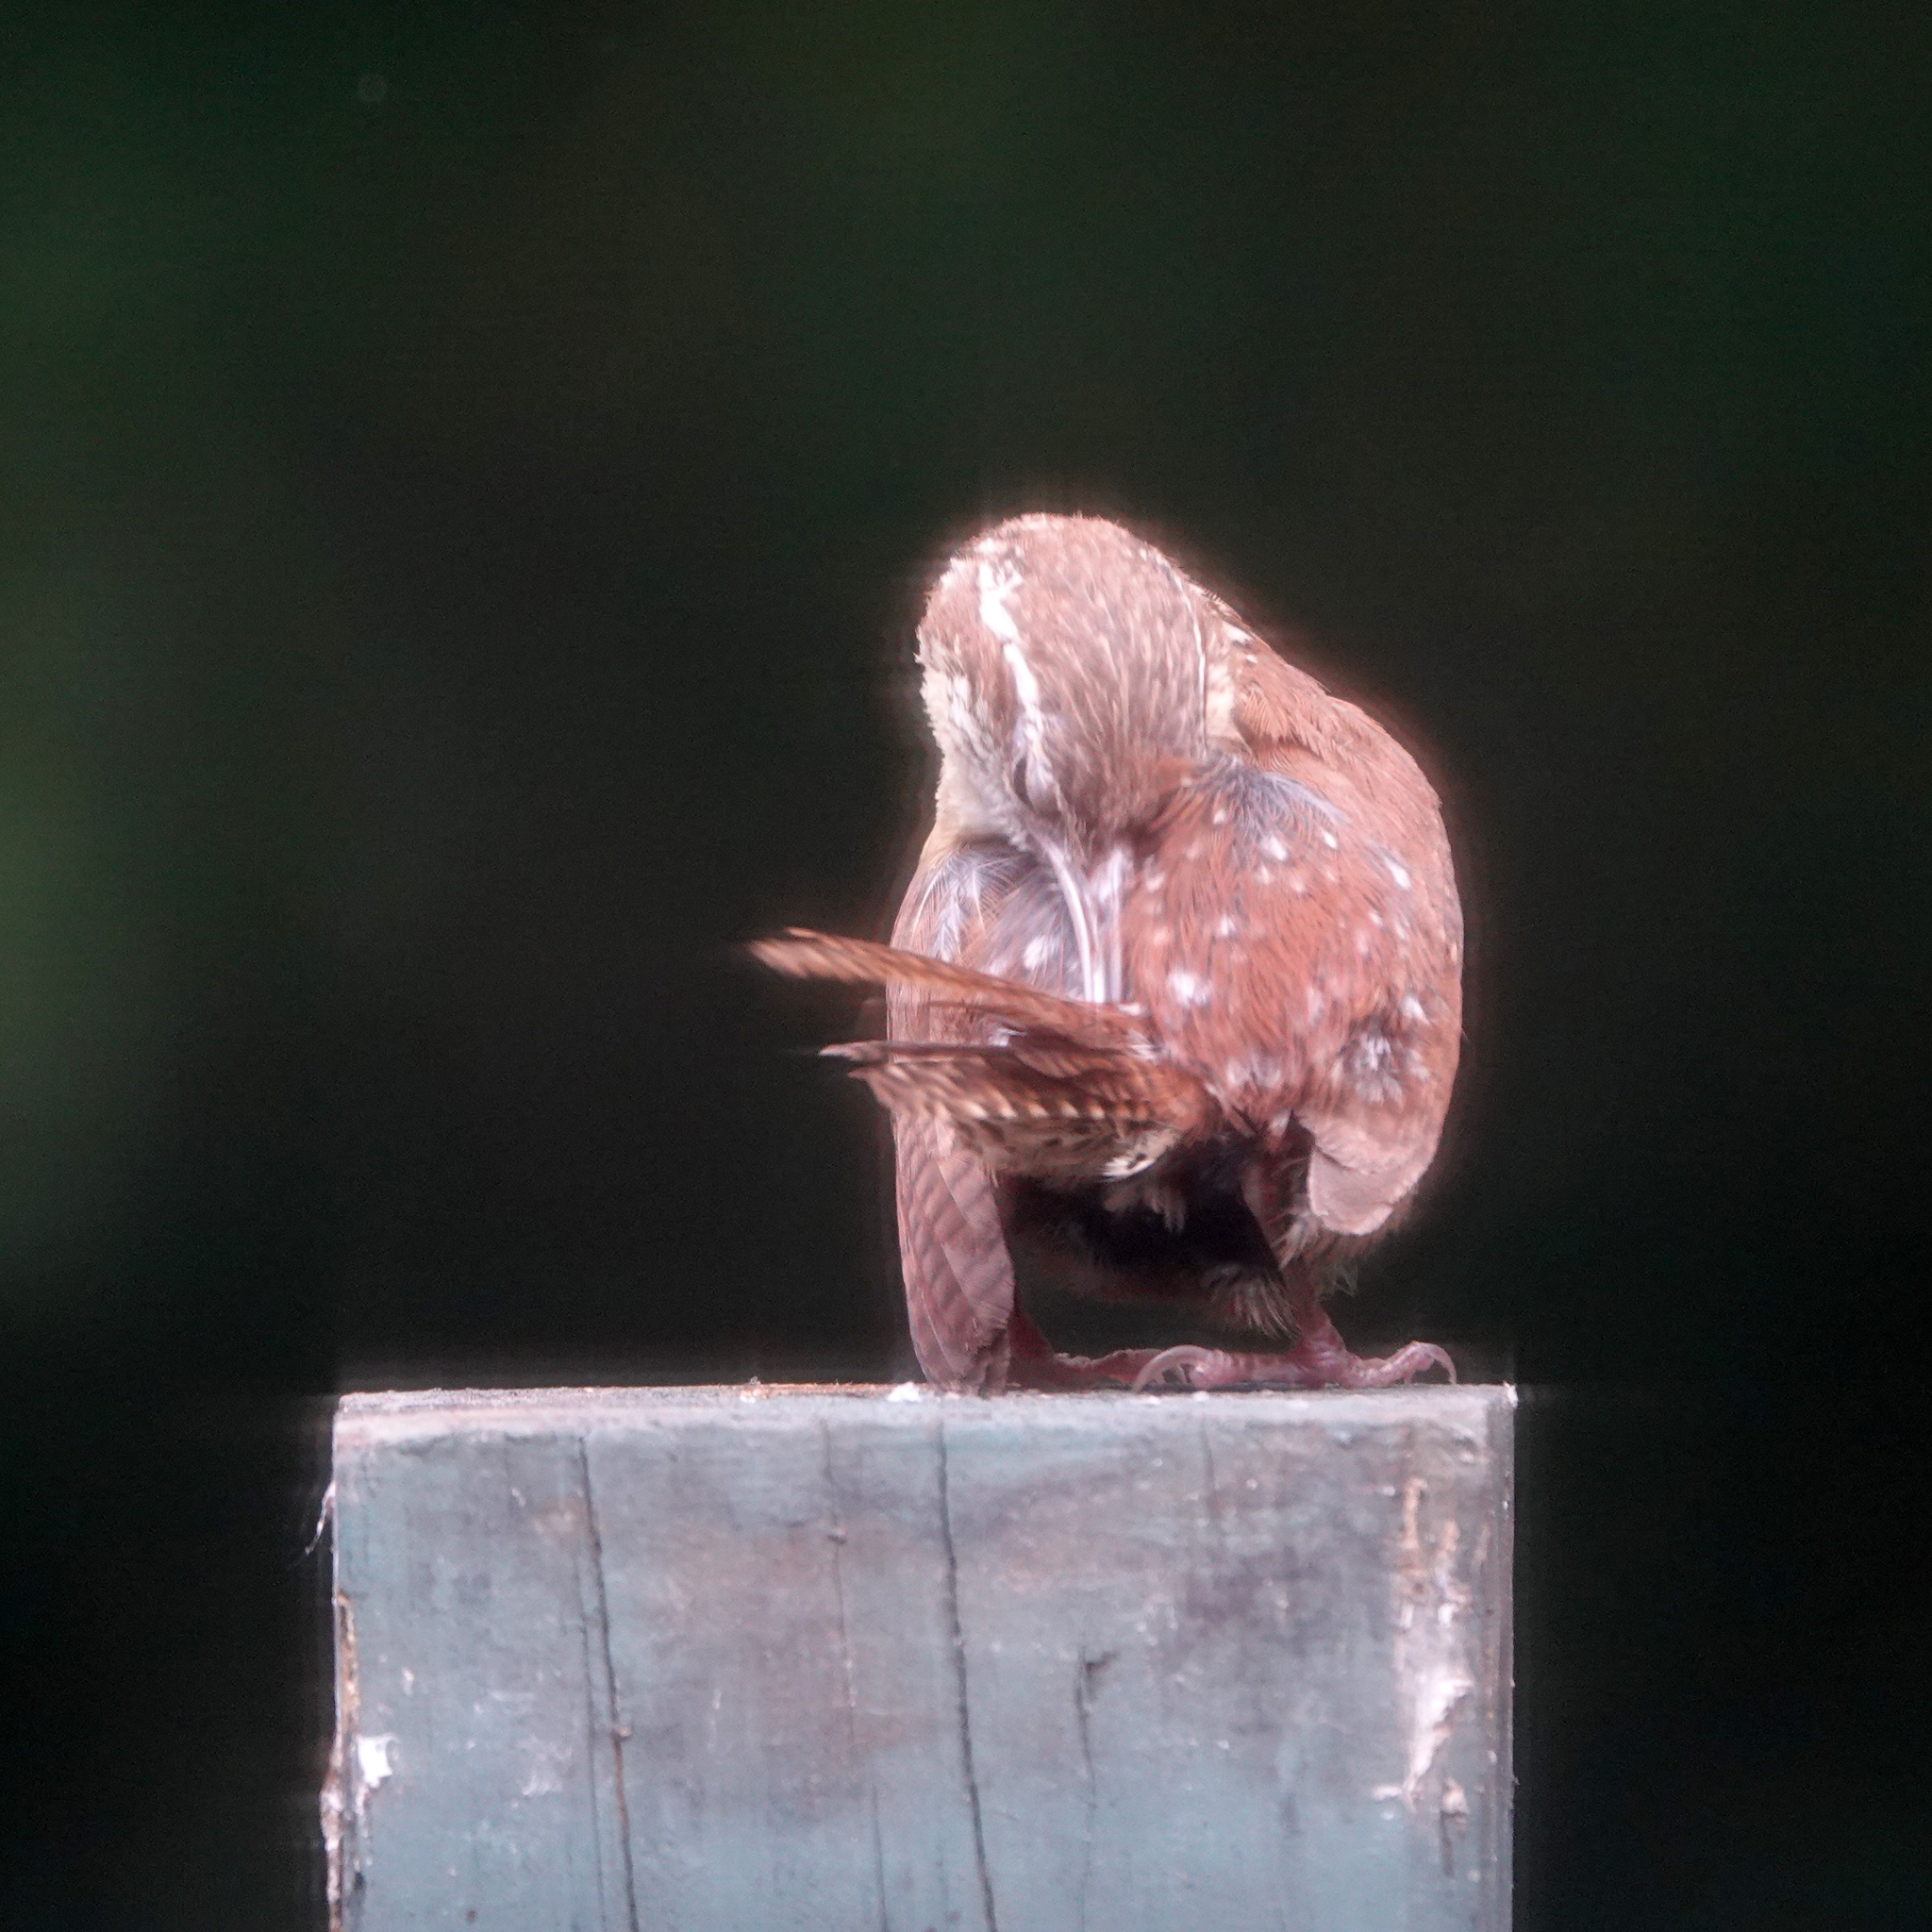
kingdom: Animalia
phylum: Chordata
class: Aves
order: Passeriformes
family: Troglodytidae
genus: Thryothorus
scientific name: Thryothorus ludovicianus
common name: Carolina wren
